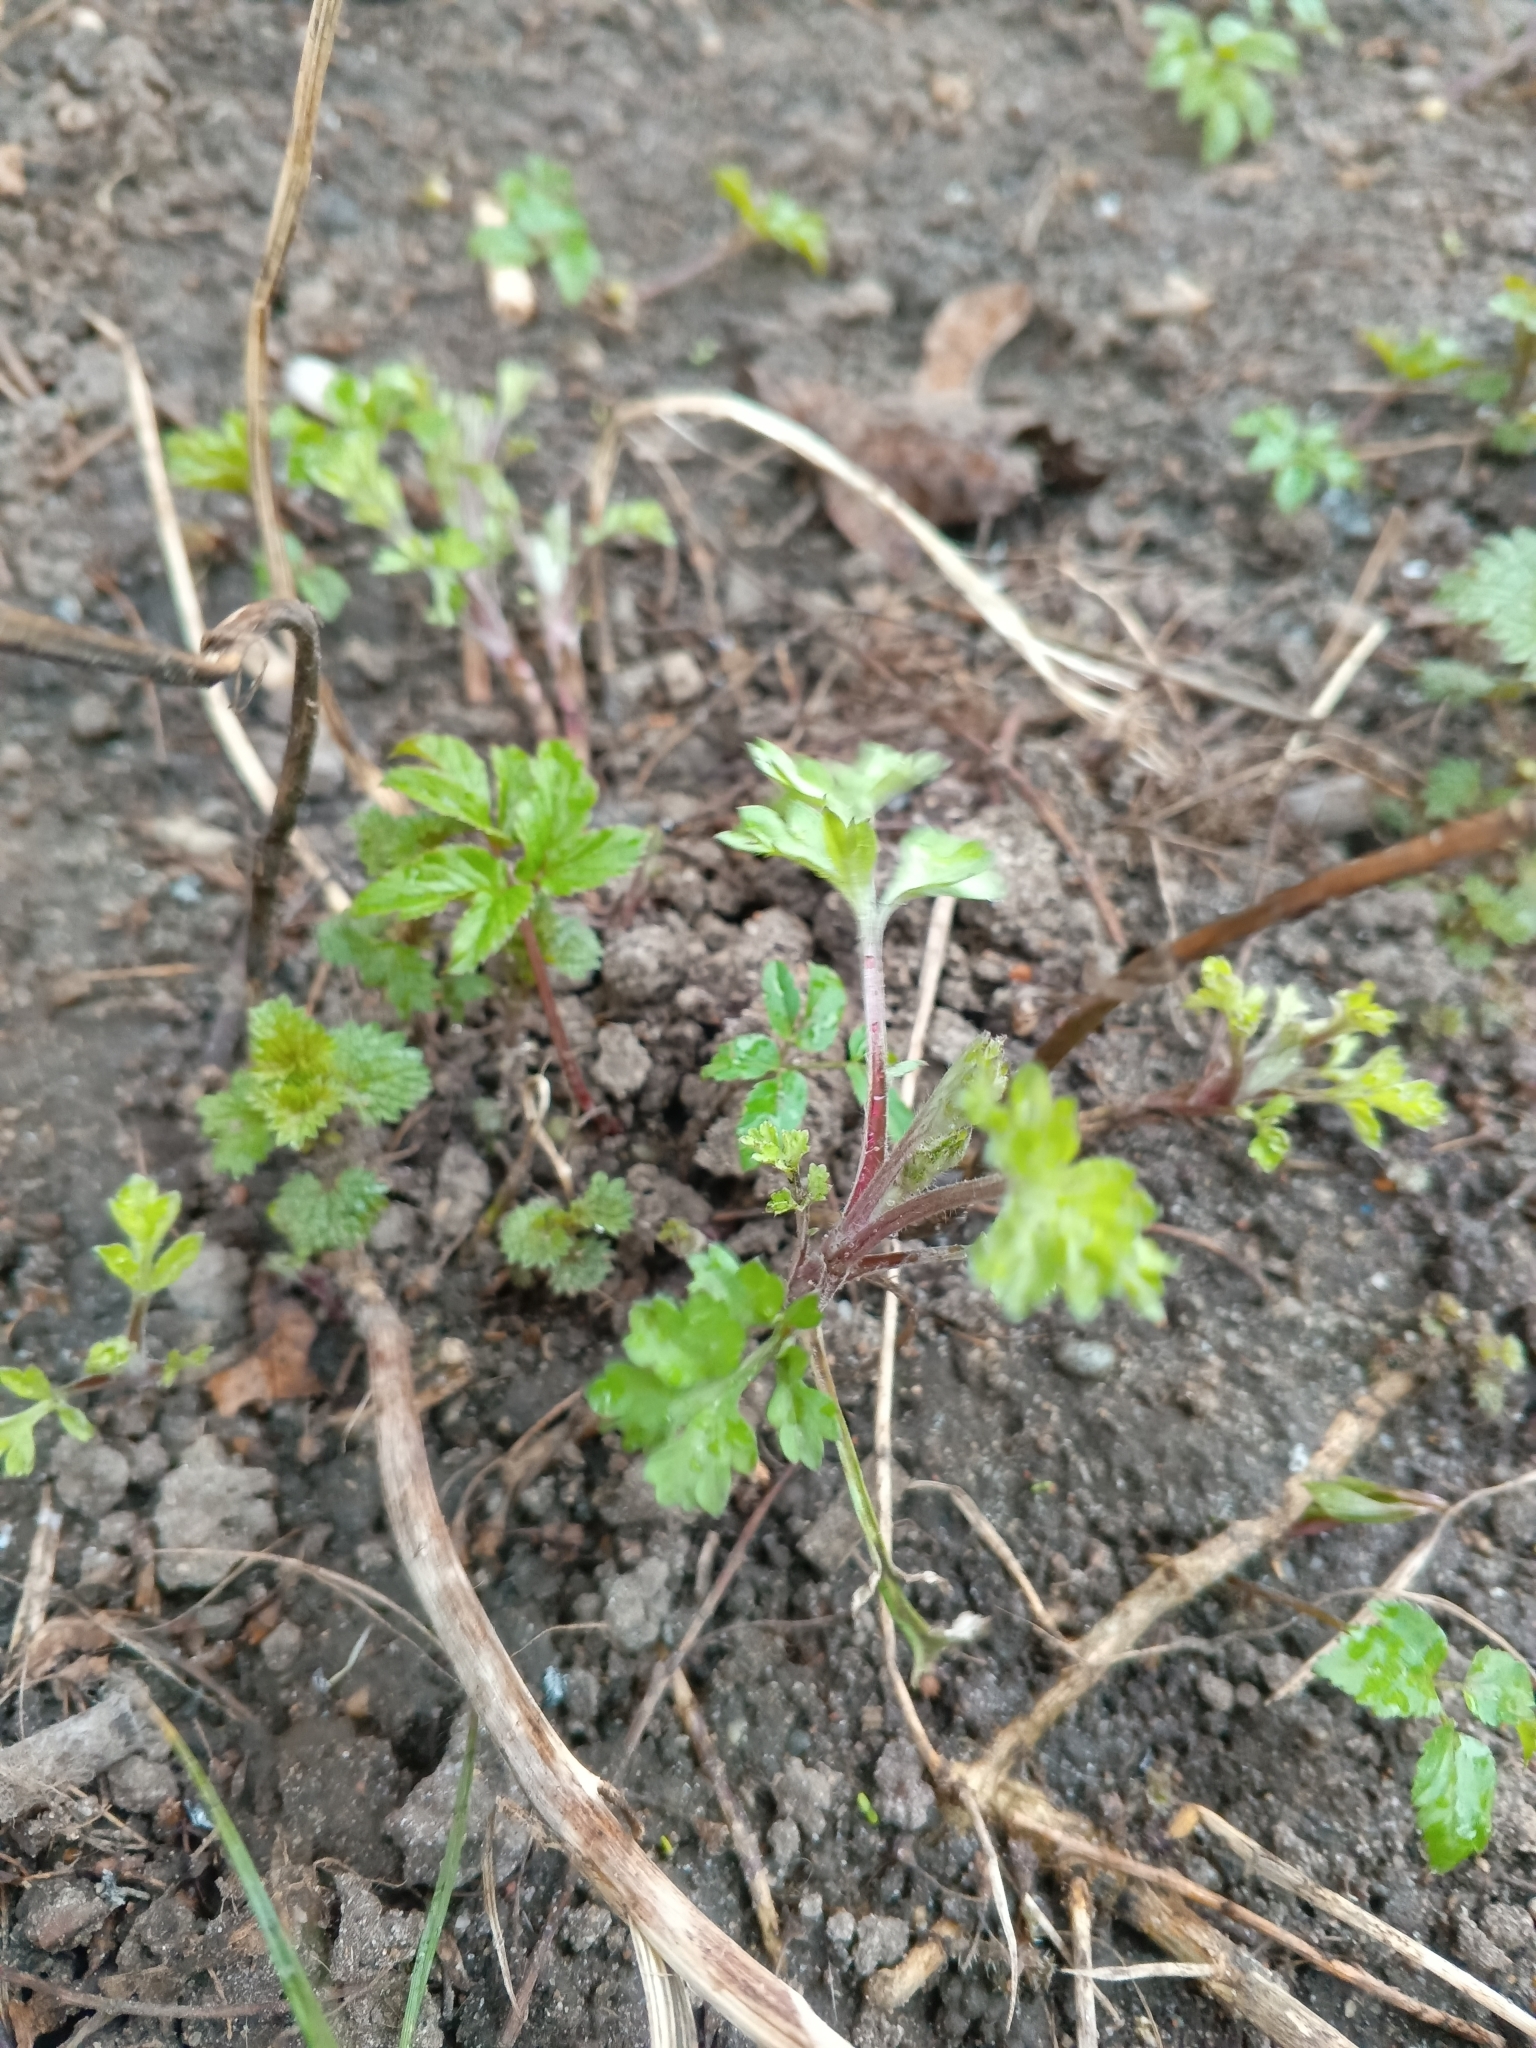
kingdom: Plantae
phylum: Tracheophyta
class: Magnoliopsida
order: Asterales
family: Asteraceae
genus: Artemisia
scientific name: Artemisia vulgaris
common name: Mugwort
